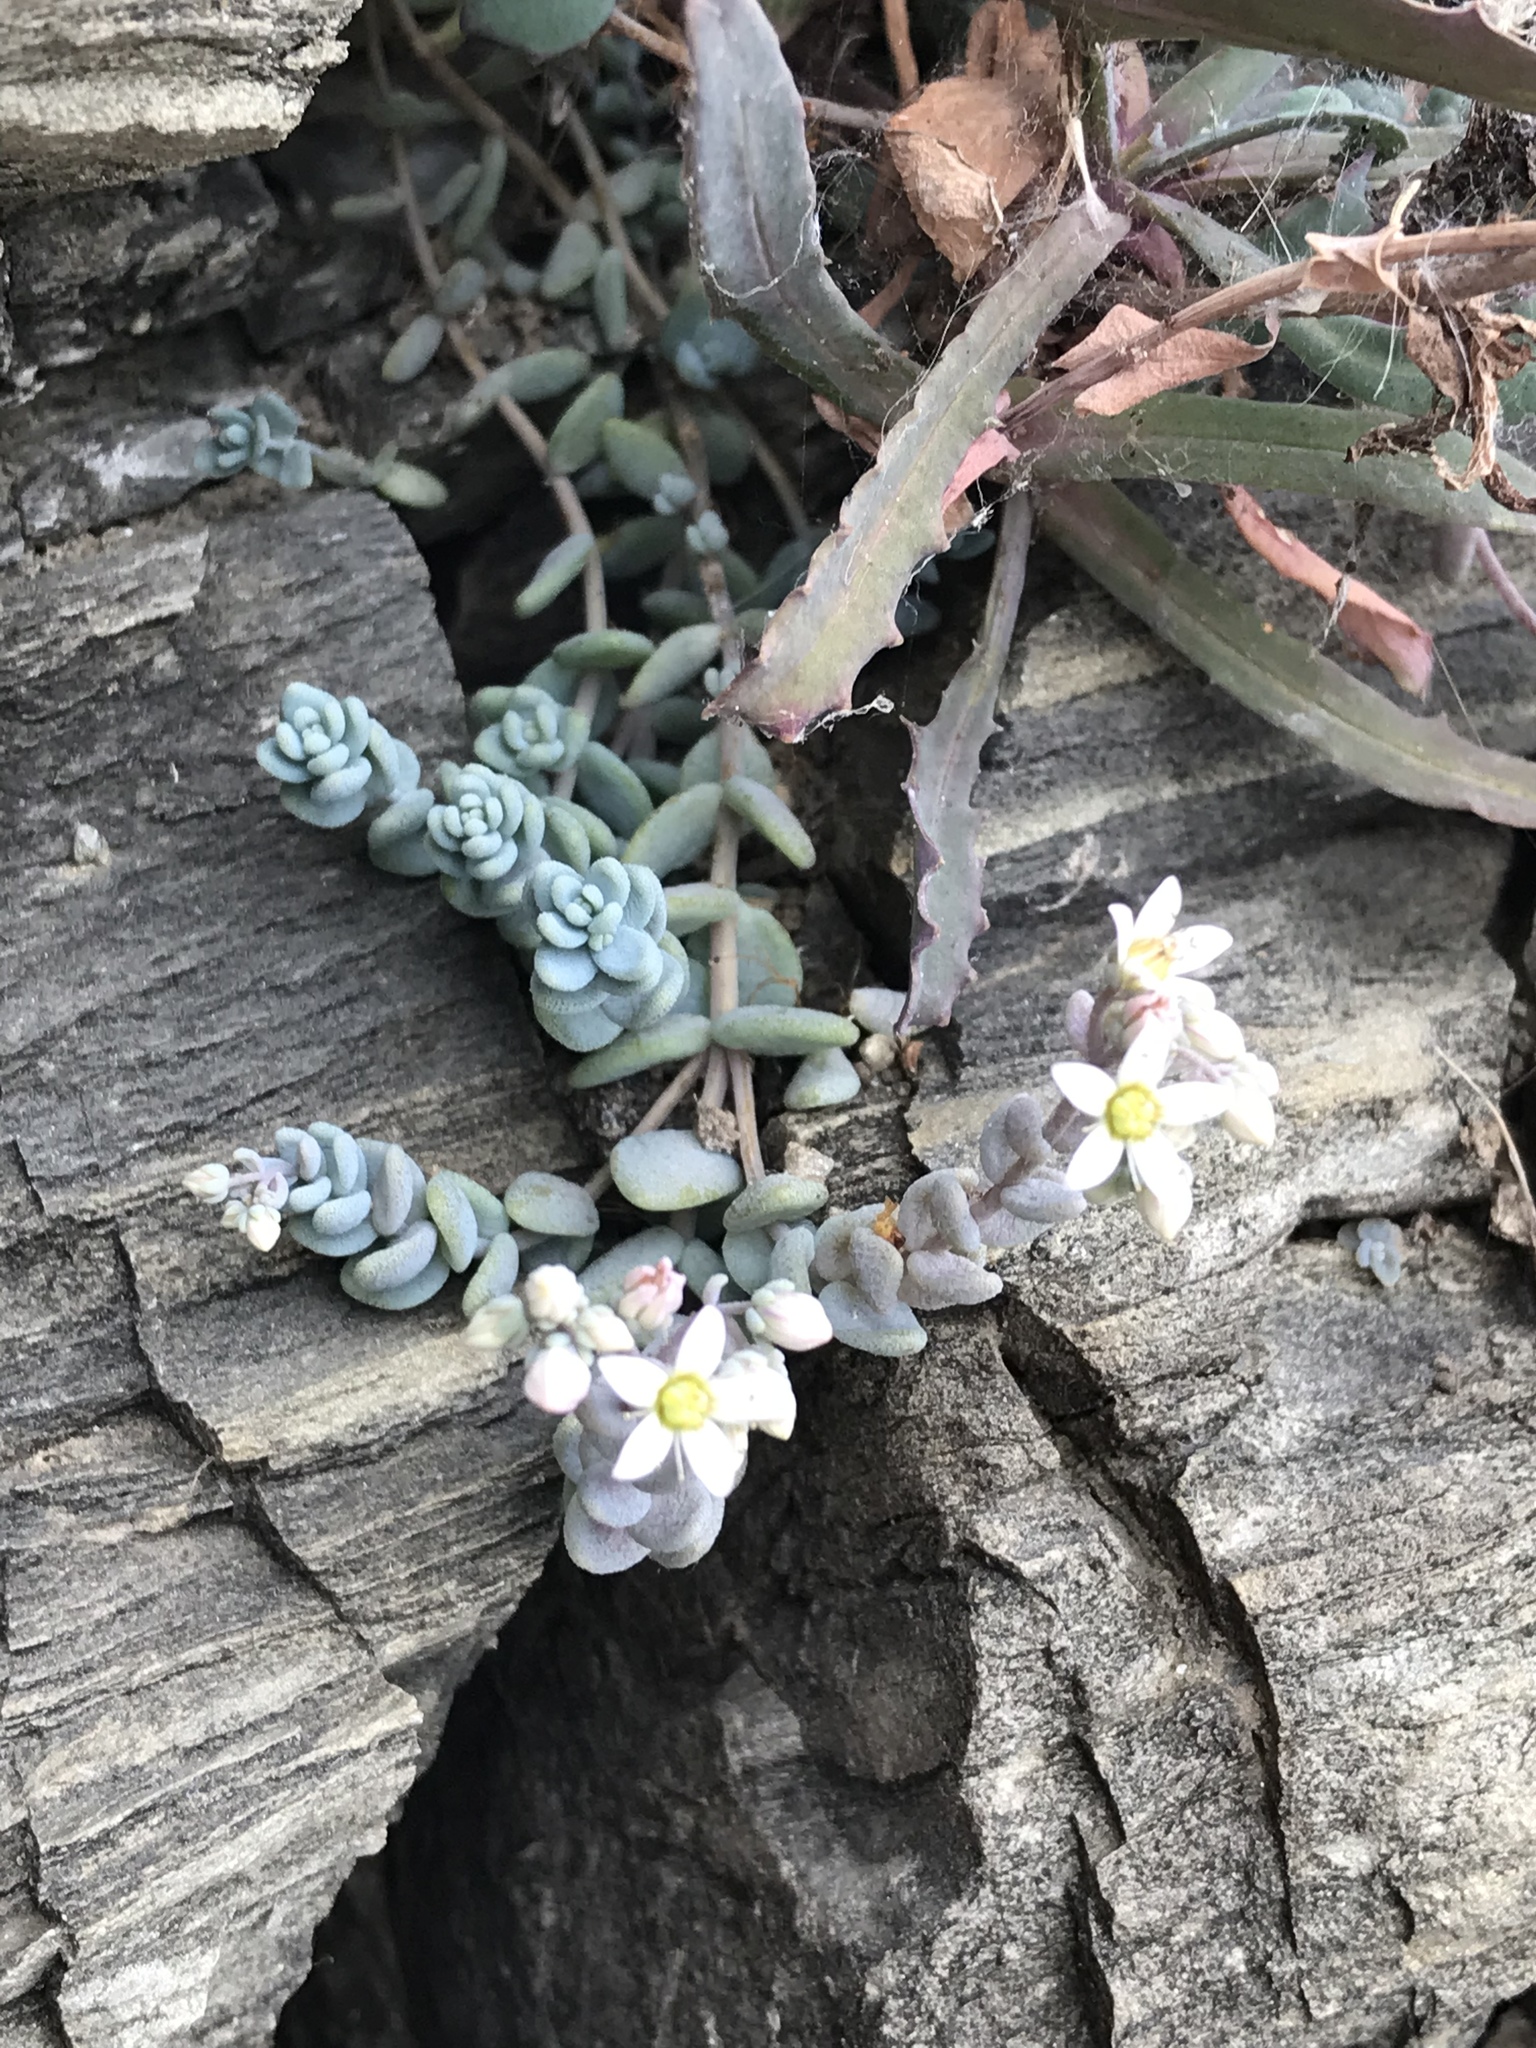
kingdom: Plantae
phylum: Tracheophyta
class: Magnoliopsida
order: Saxifragales
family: Crassulaceae
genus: Sedum
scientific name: Sedum dasyphyllum
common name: Thick-leaf stonecrop
